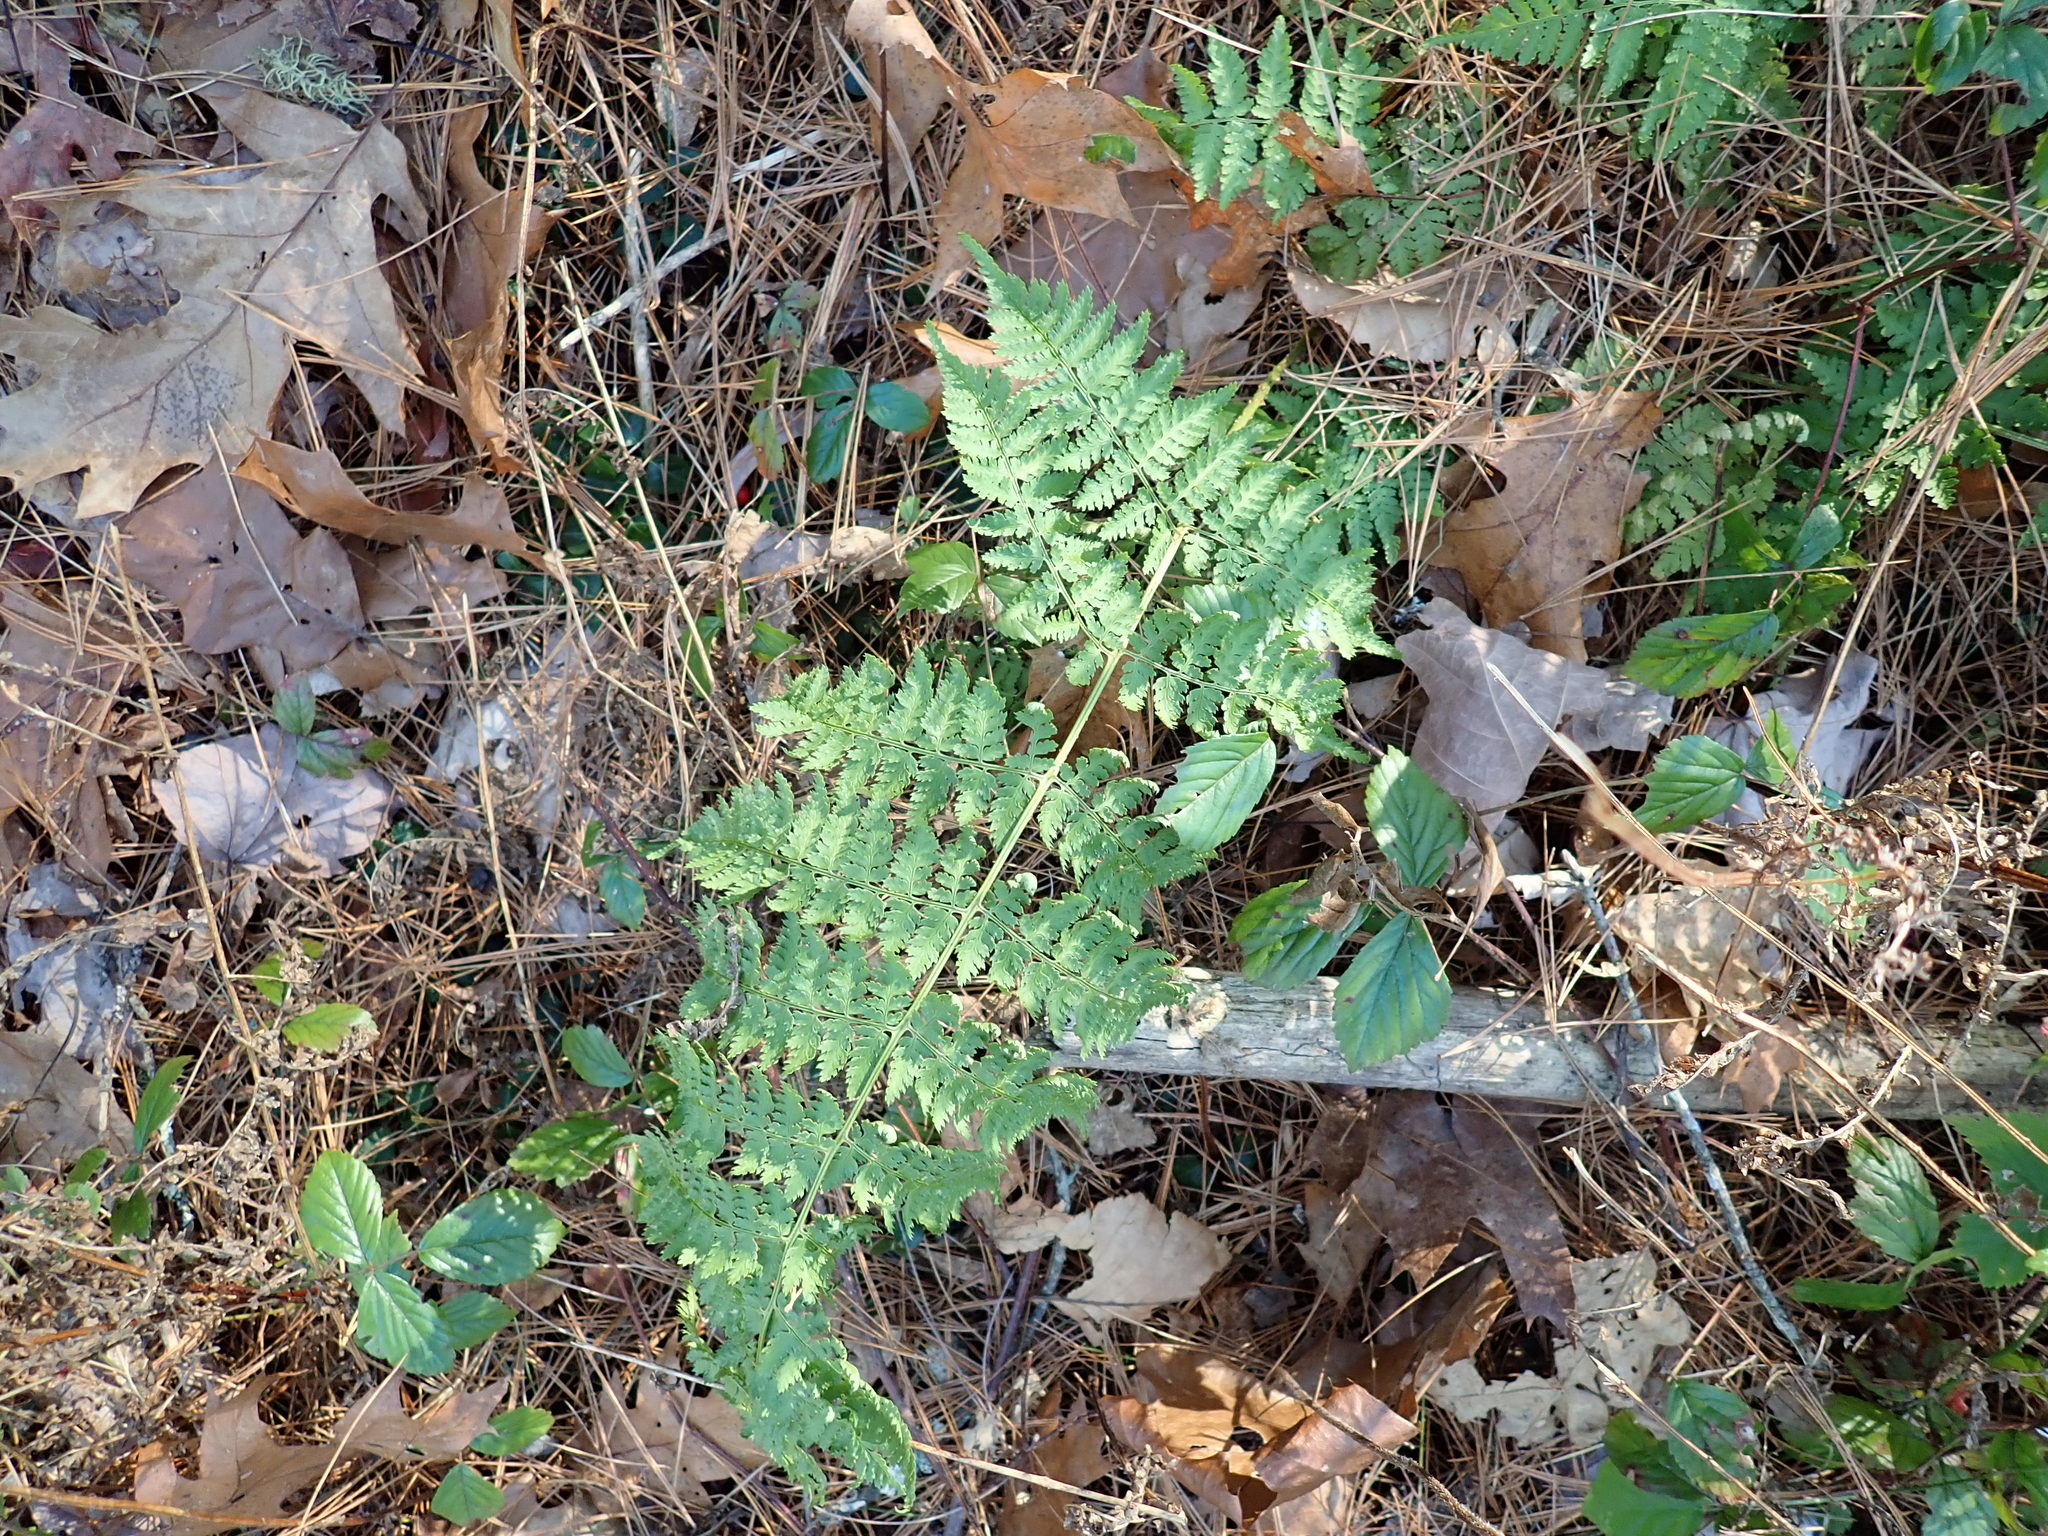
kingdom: Plantae
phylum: Tracheophyta
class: Polypodiopsida
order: Polypodiales
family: Dryopteridaceae
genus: Dryopteris
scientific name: Dryopteris intermedia
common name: Evergreen wood fern
